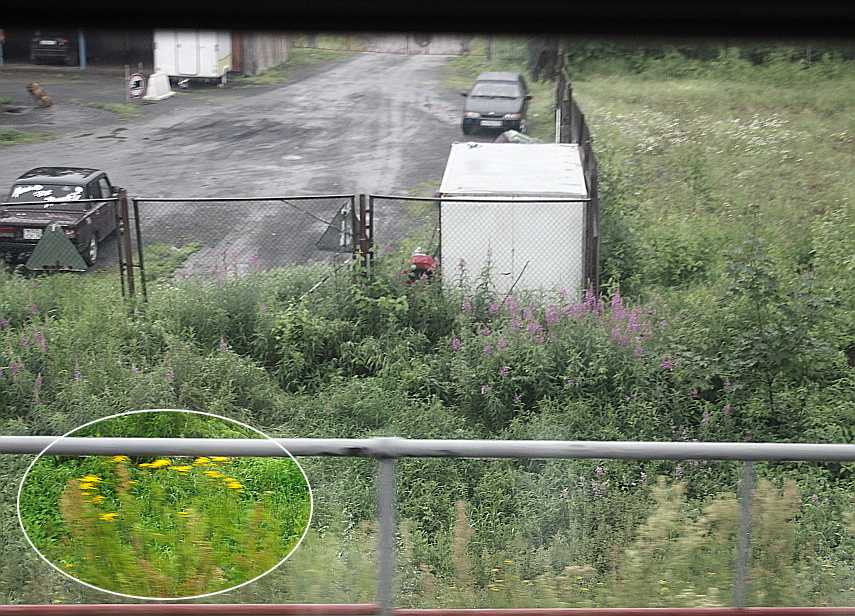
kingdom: Plantae
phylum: Tracheophyta
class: Magnoliopsida
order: Asterales
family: Asteraceae
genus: Tanacetum
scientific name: Tanacetum vulgare
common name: Common tansy
